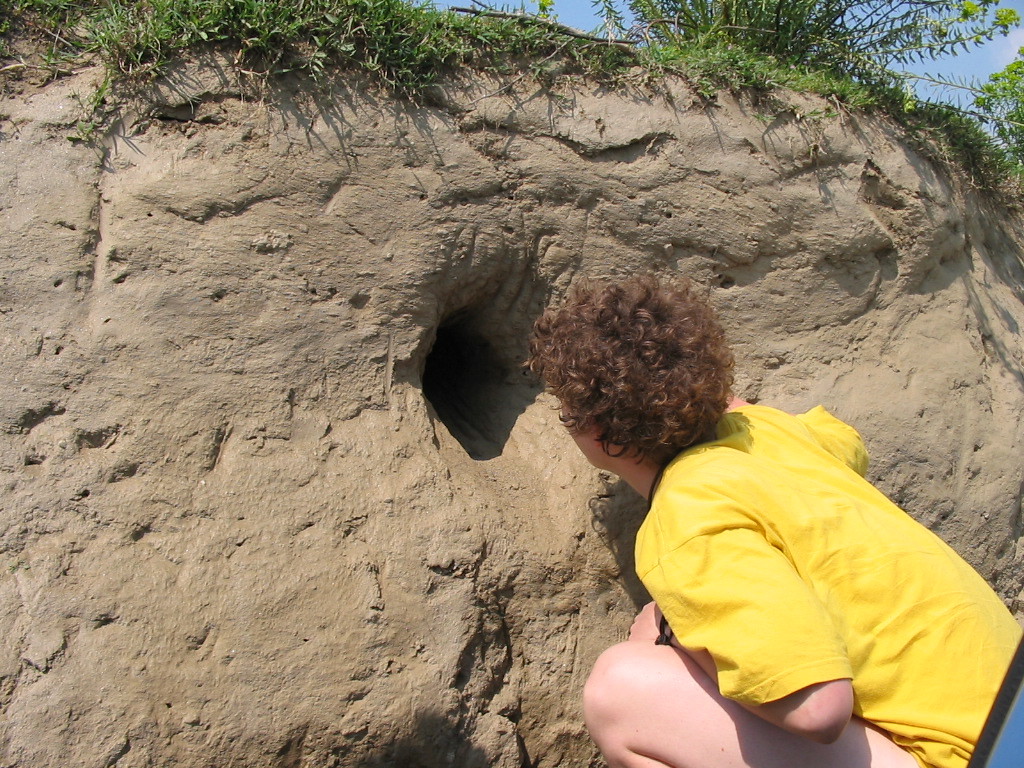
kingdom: Animalia
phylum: Chordata
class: Aves
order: Coraciiformes
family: Meropidae
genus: Merops
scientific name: Merops apiaster
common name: European bee-eater
